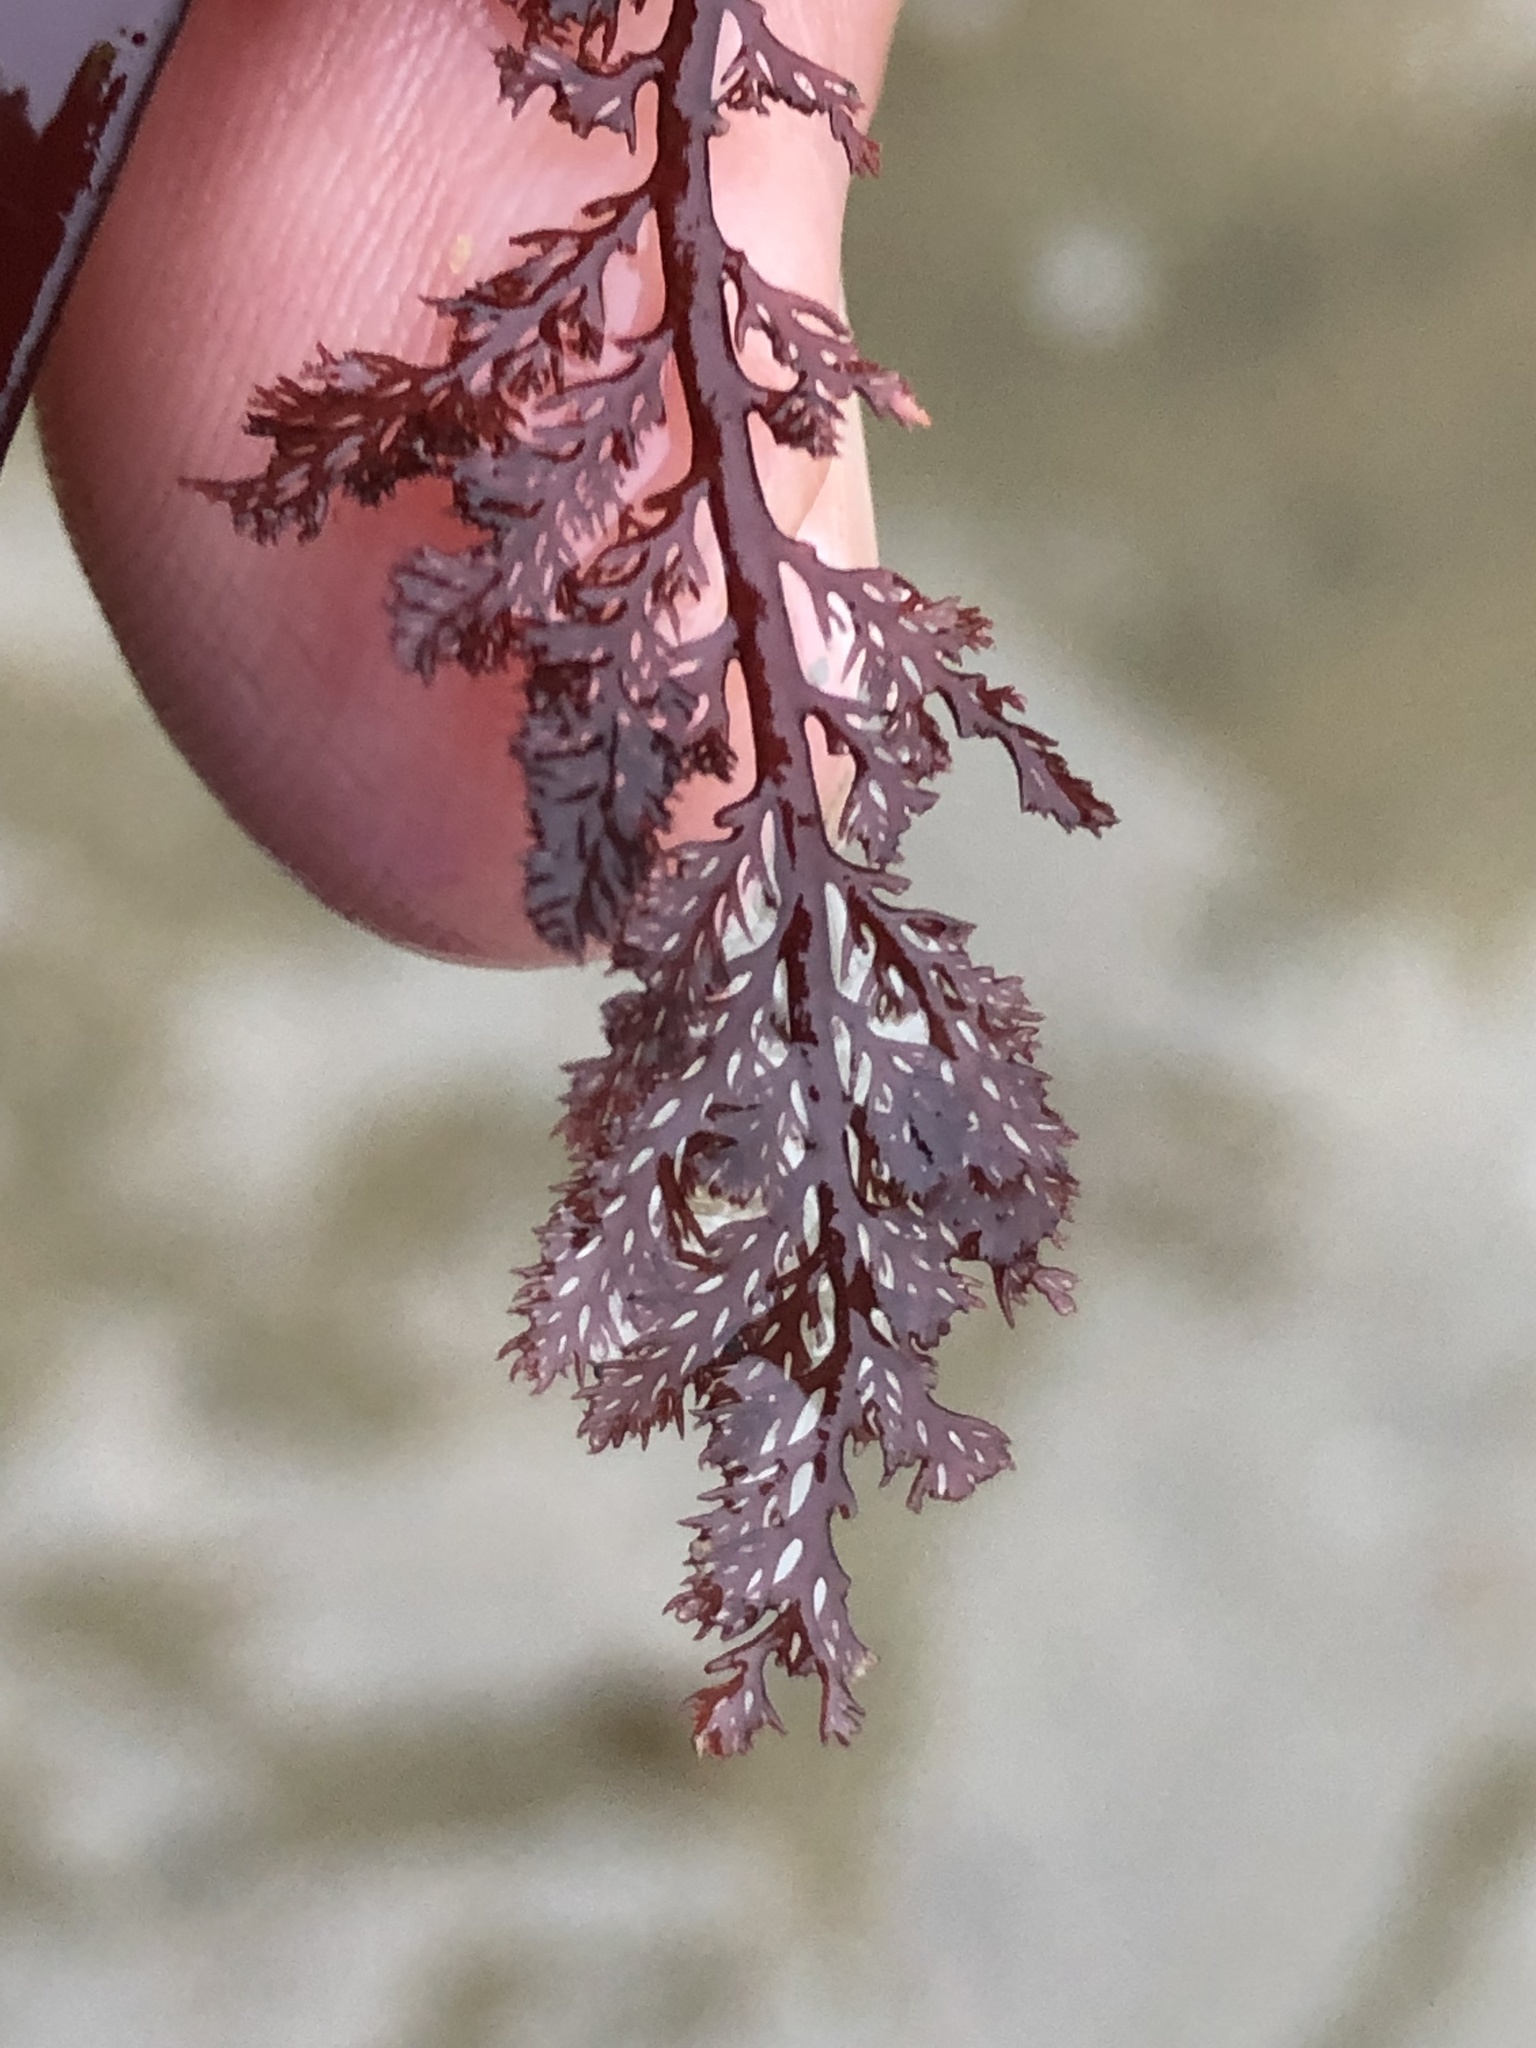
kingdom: Plantae
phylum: Rhodophyta
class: Florideophyceae
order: Ceramiales
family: Ceramiaceae
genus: Microcladia
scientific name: Microcladia coulteri
